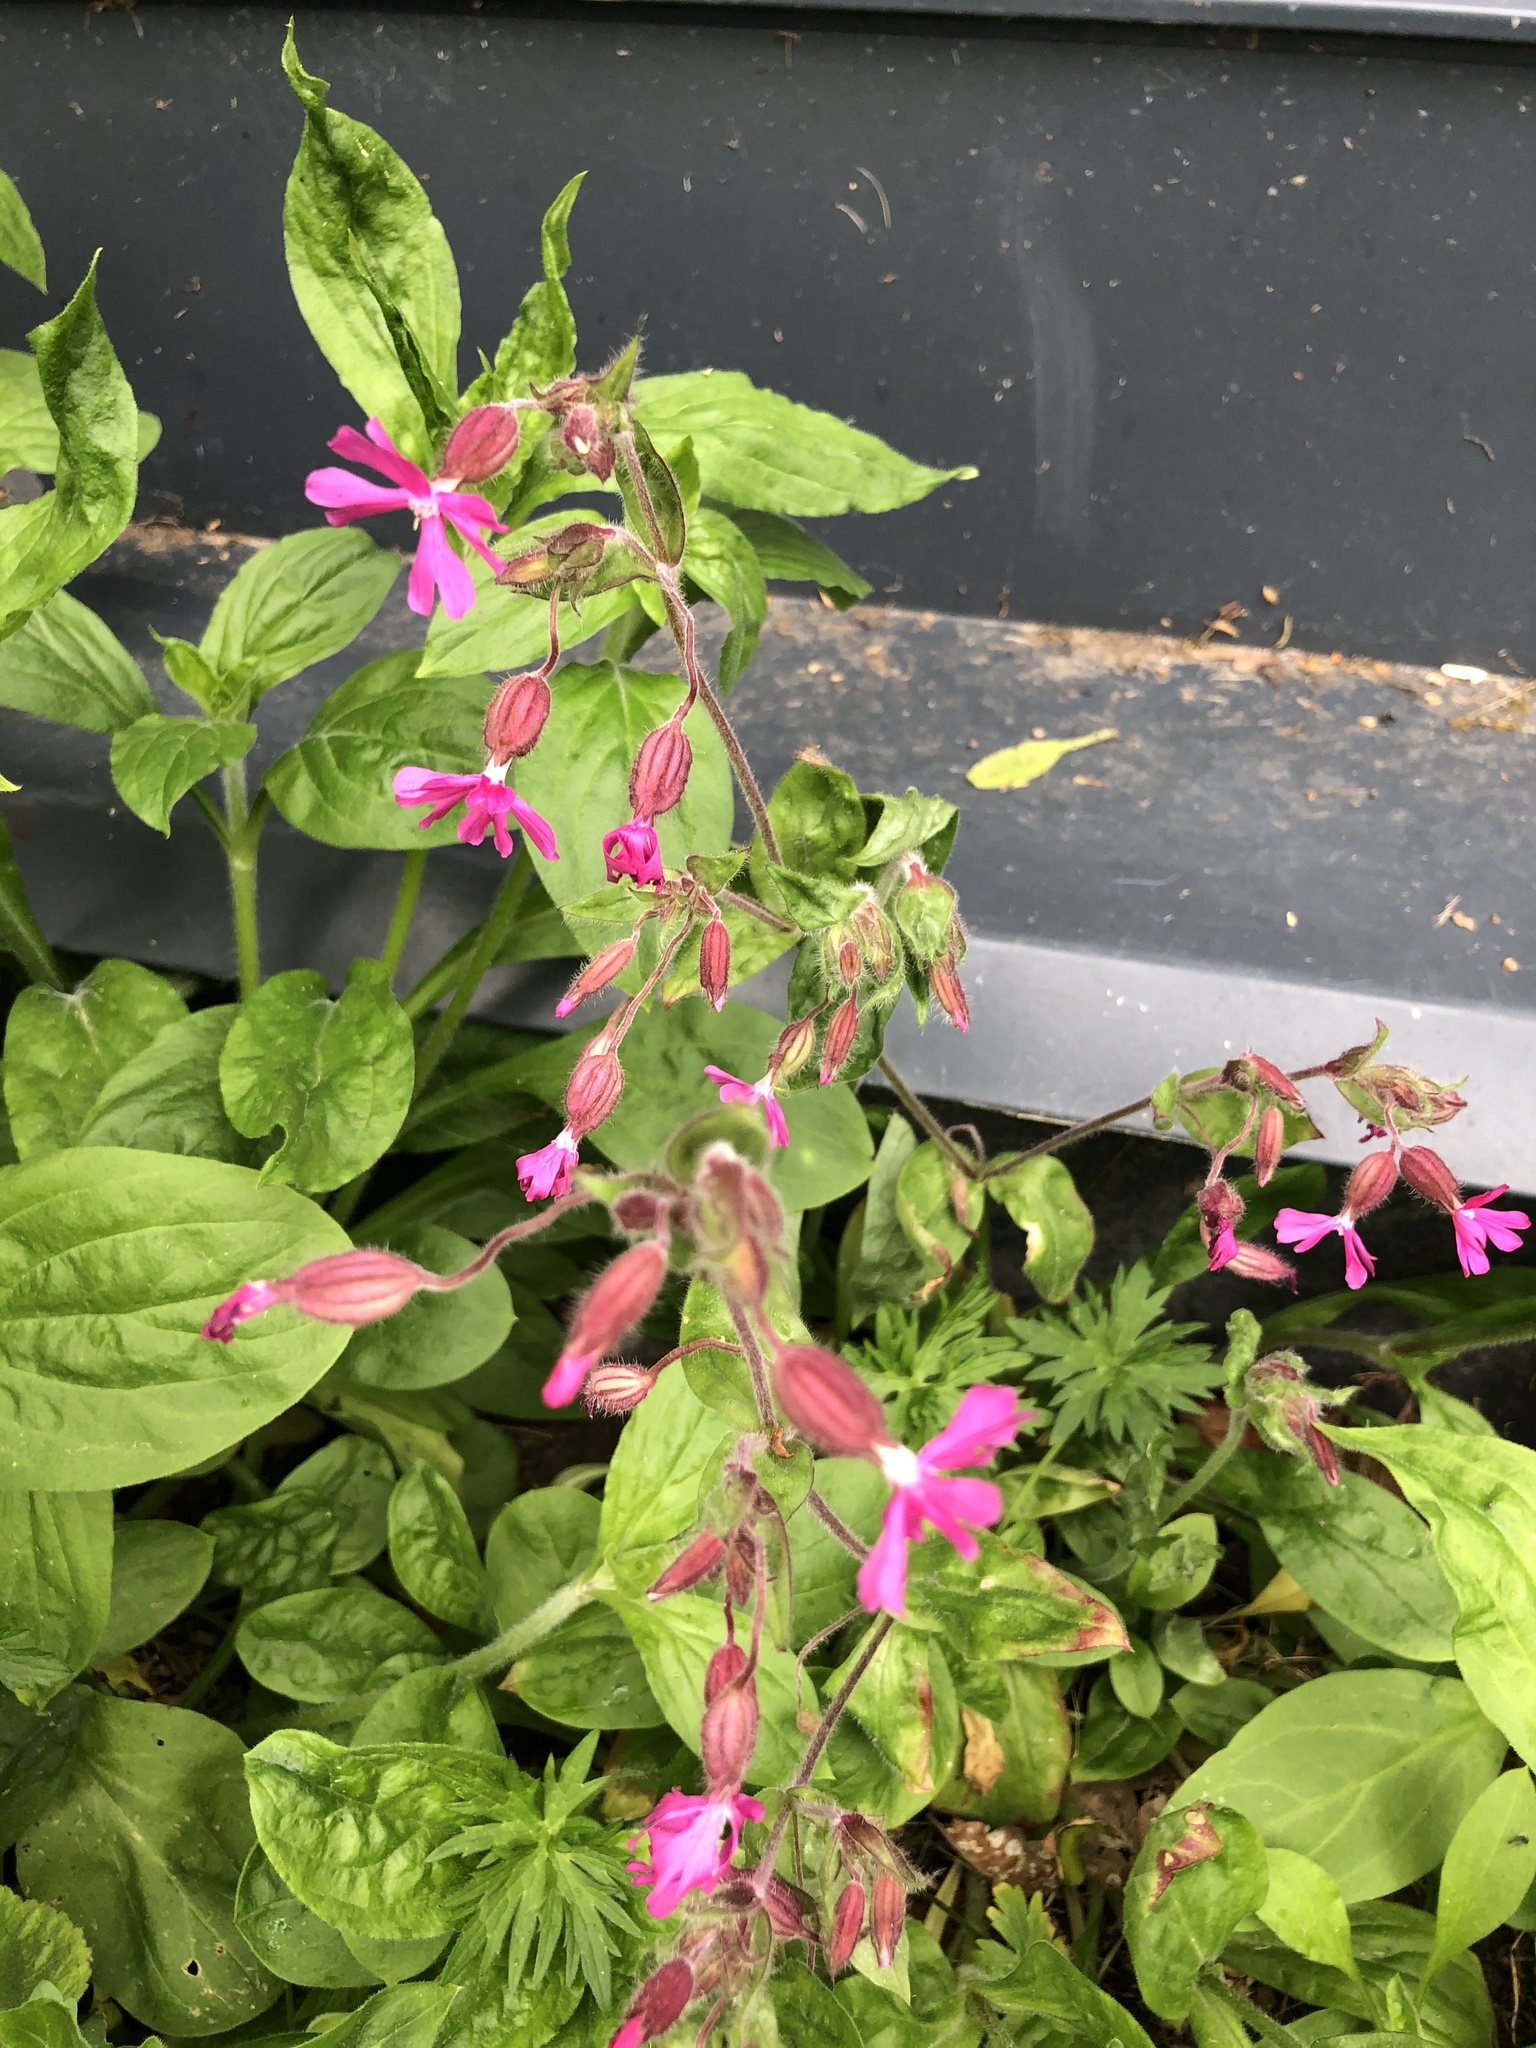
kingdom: Plantae
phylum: Tracheophyta
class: Magnoliopsida
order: Caryophyllales
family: Caryophyllaceae
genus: Silene
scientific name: Silene dioica
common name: Red campion
